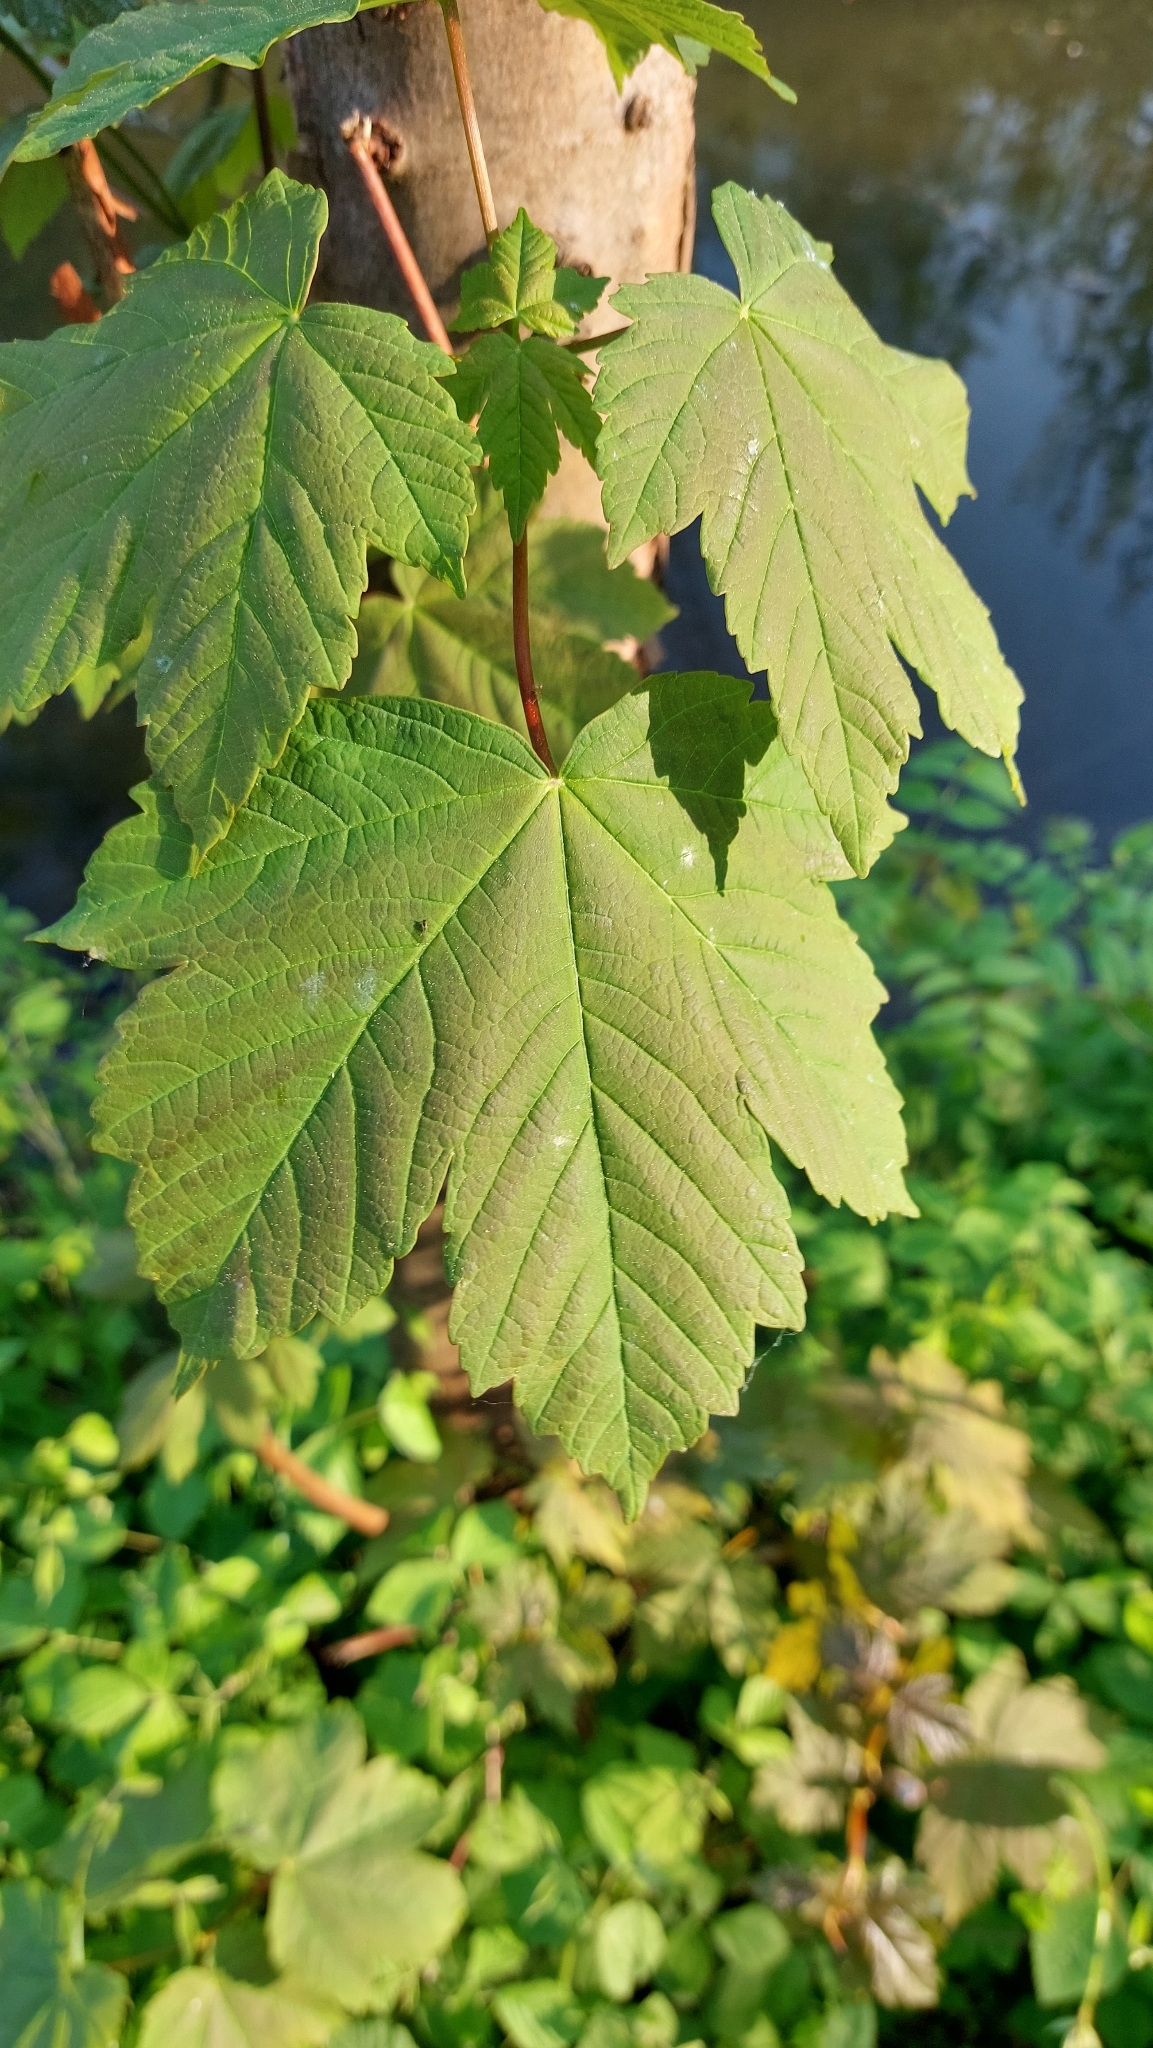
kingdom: Plantae
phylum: Tracheophyta
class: Magnoliopsida
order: Sapindales
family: Sapindaceae
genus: Acer
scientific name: Acer pseudoplatanus
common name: Sycamore
